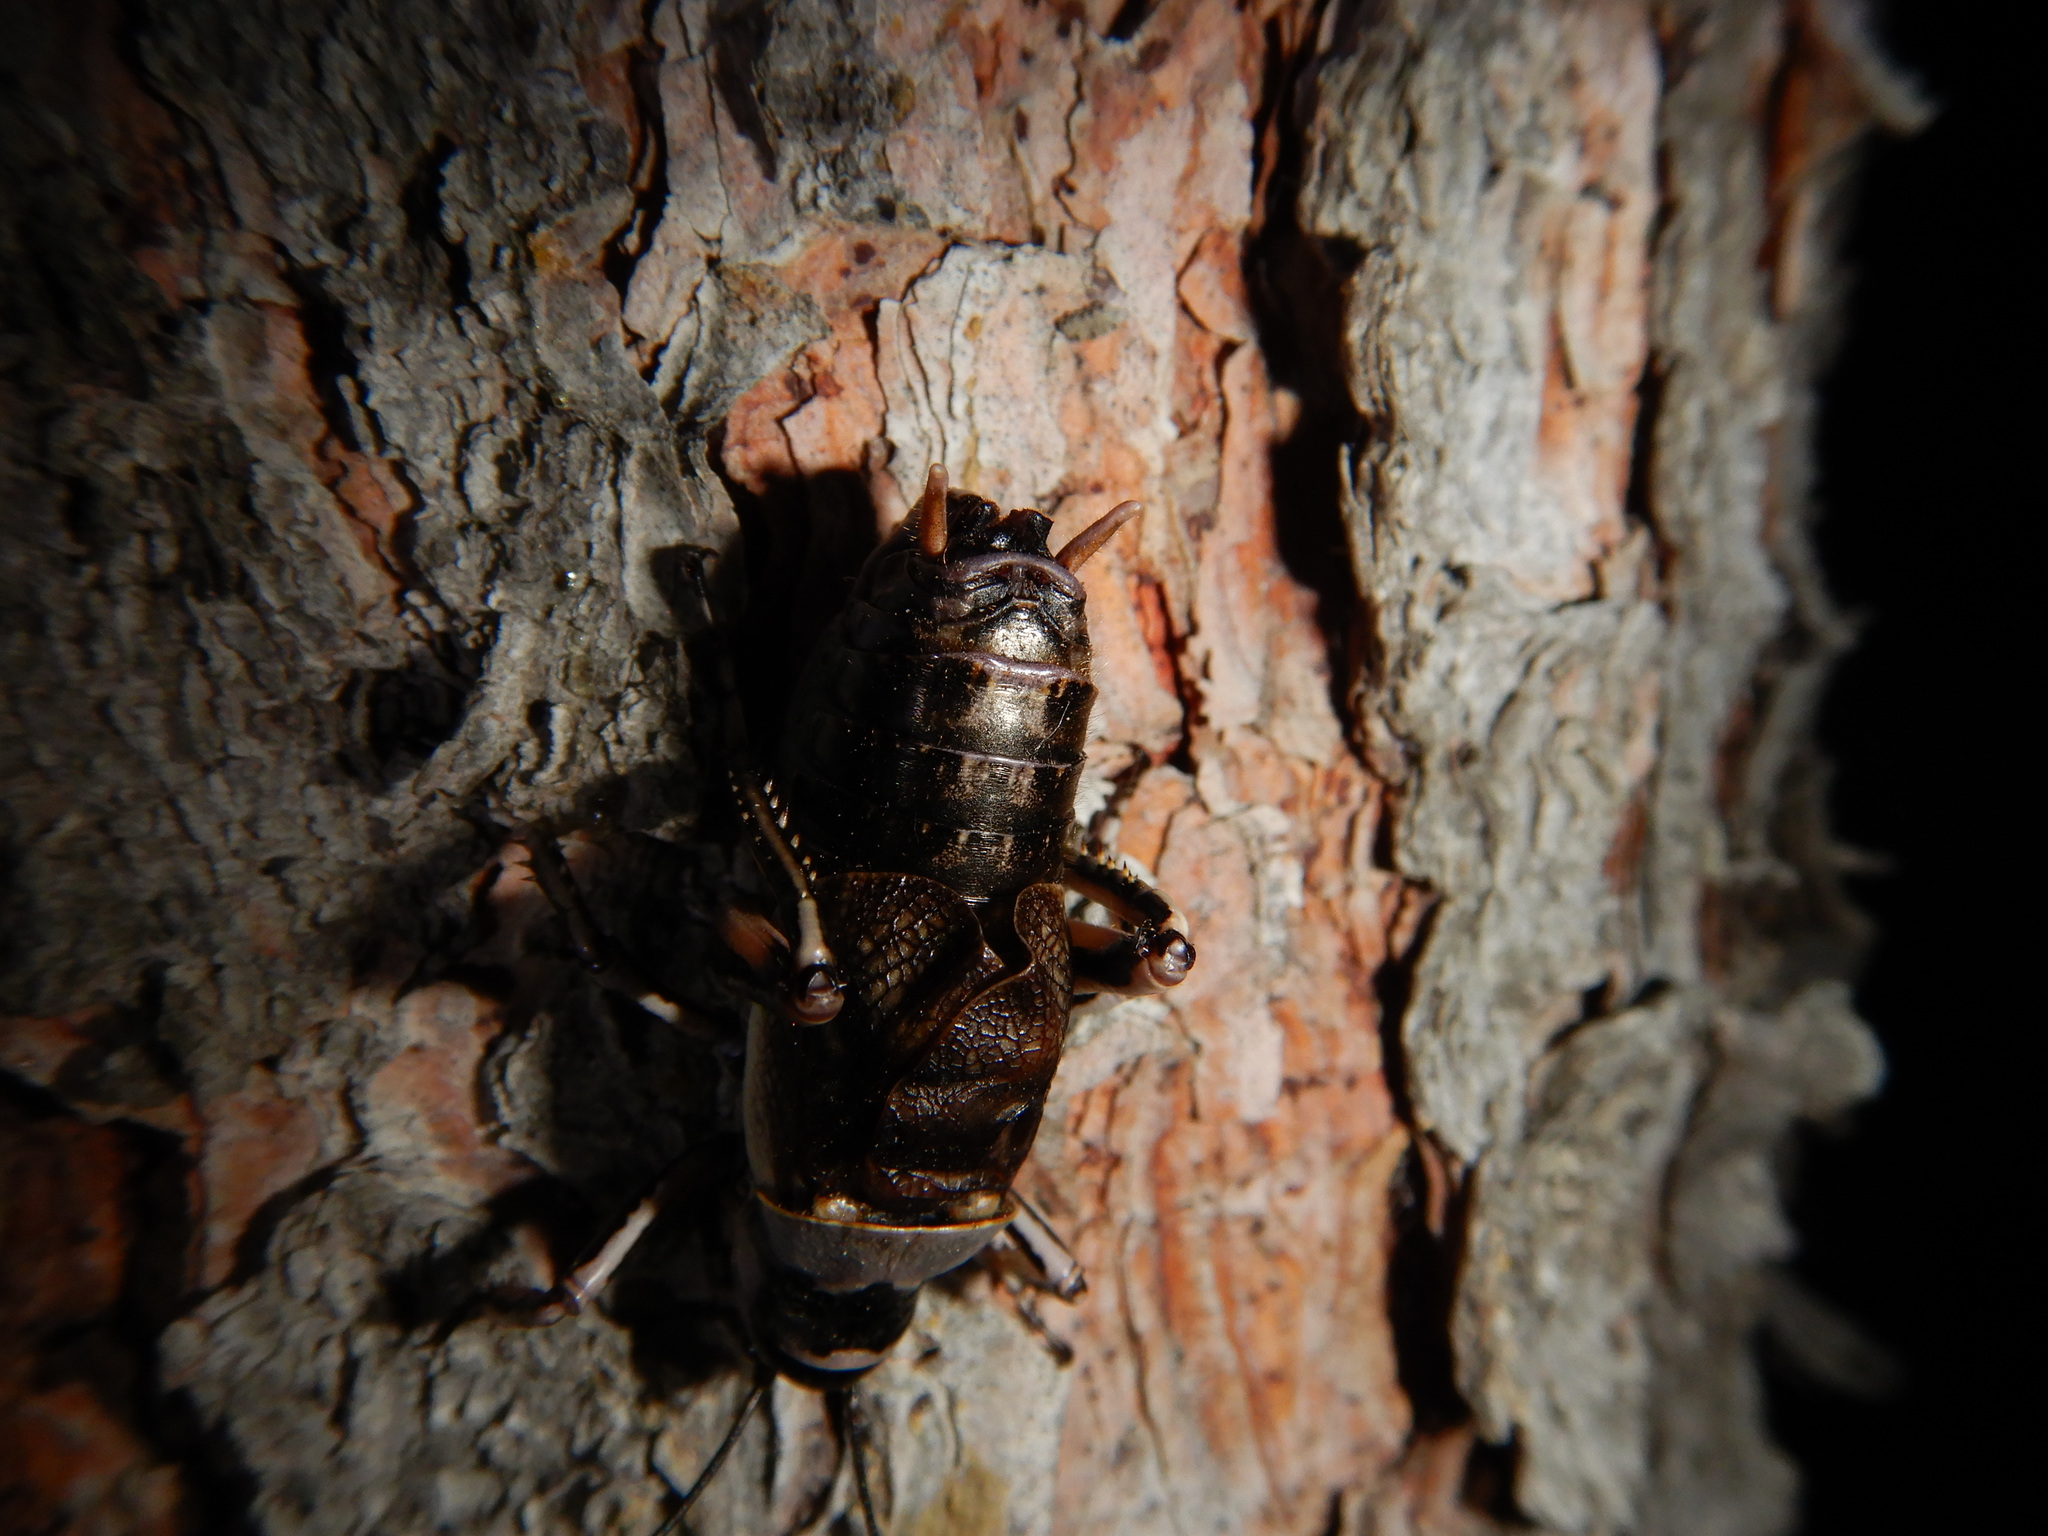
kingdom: Animalia
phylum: Arthropoda
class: Insecta
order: Orthoptera
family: Prophalangopsidae
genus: Cyphoderris
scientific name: Cyphoderris monstrosa
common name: Great grig
